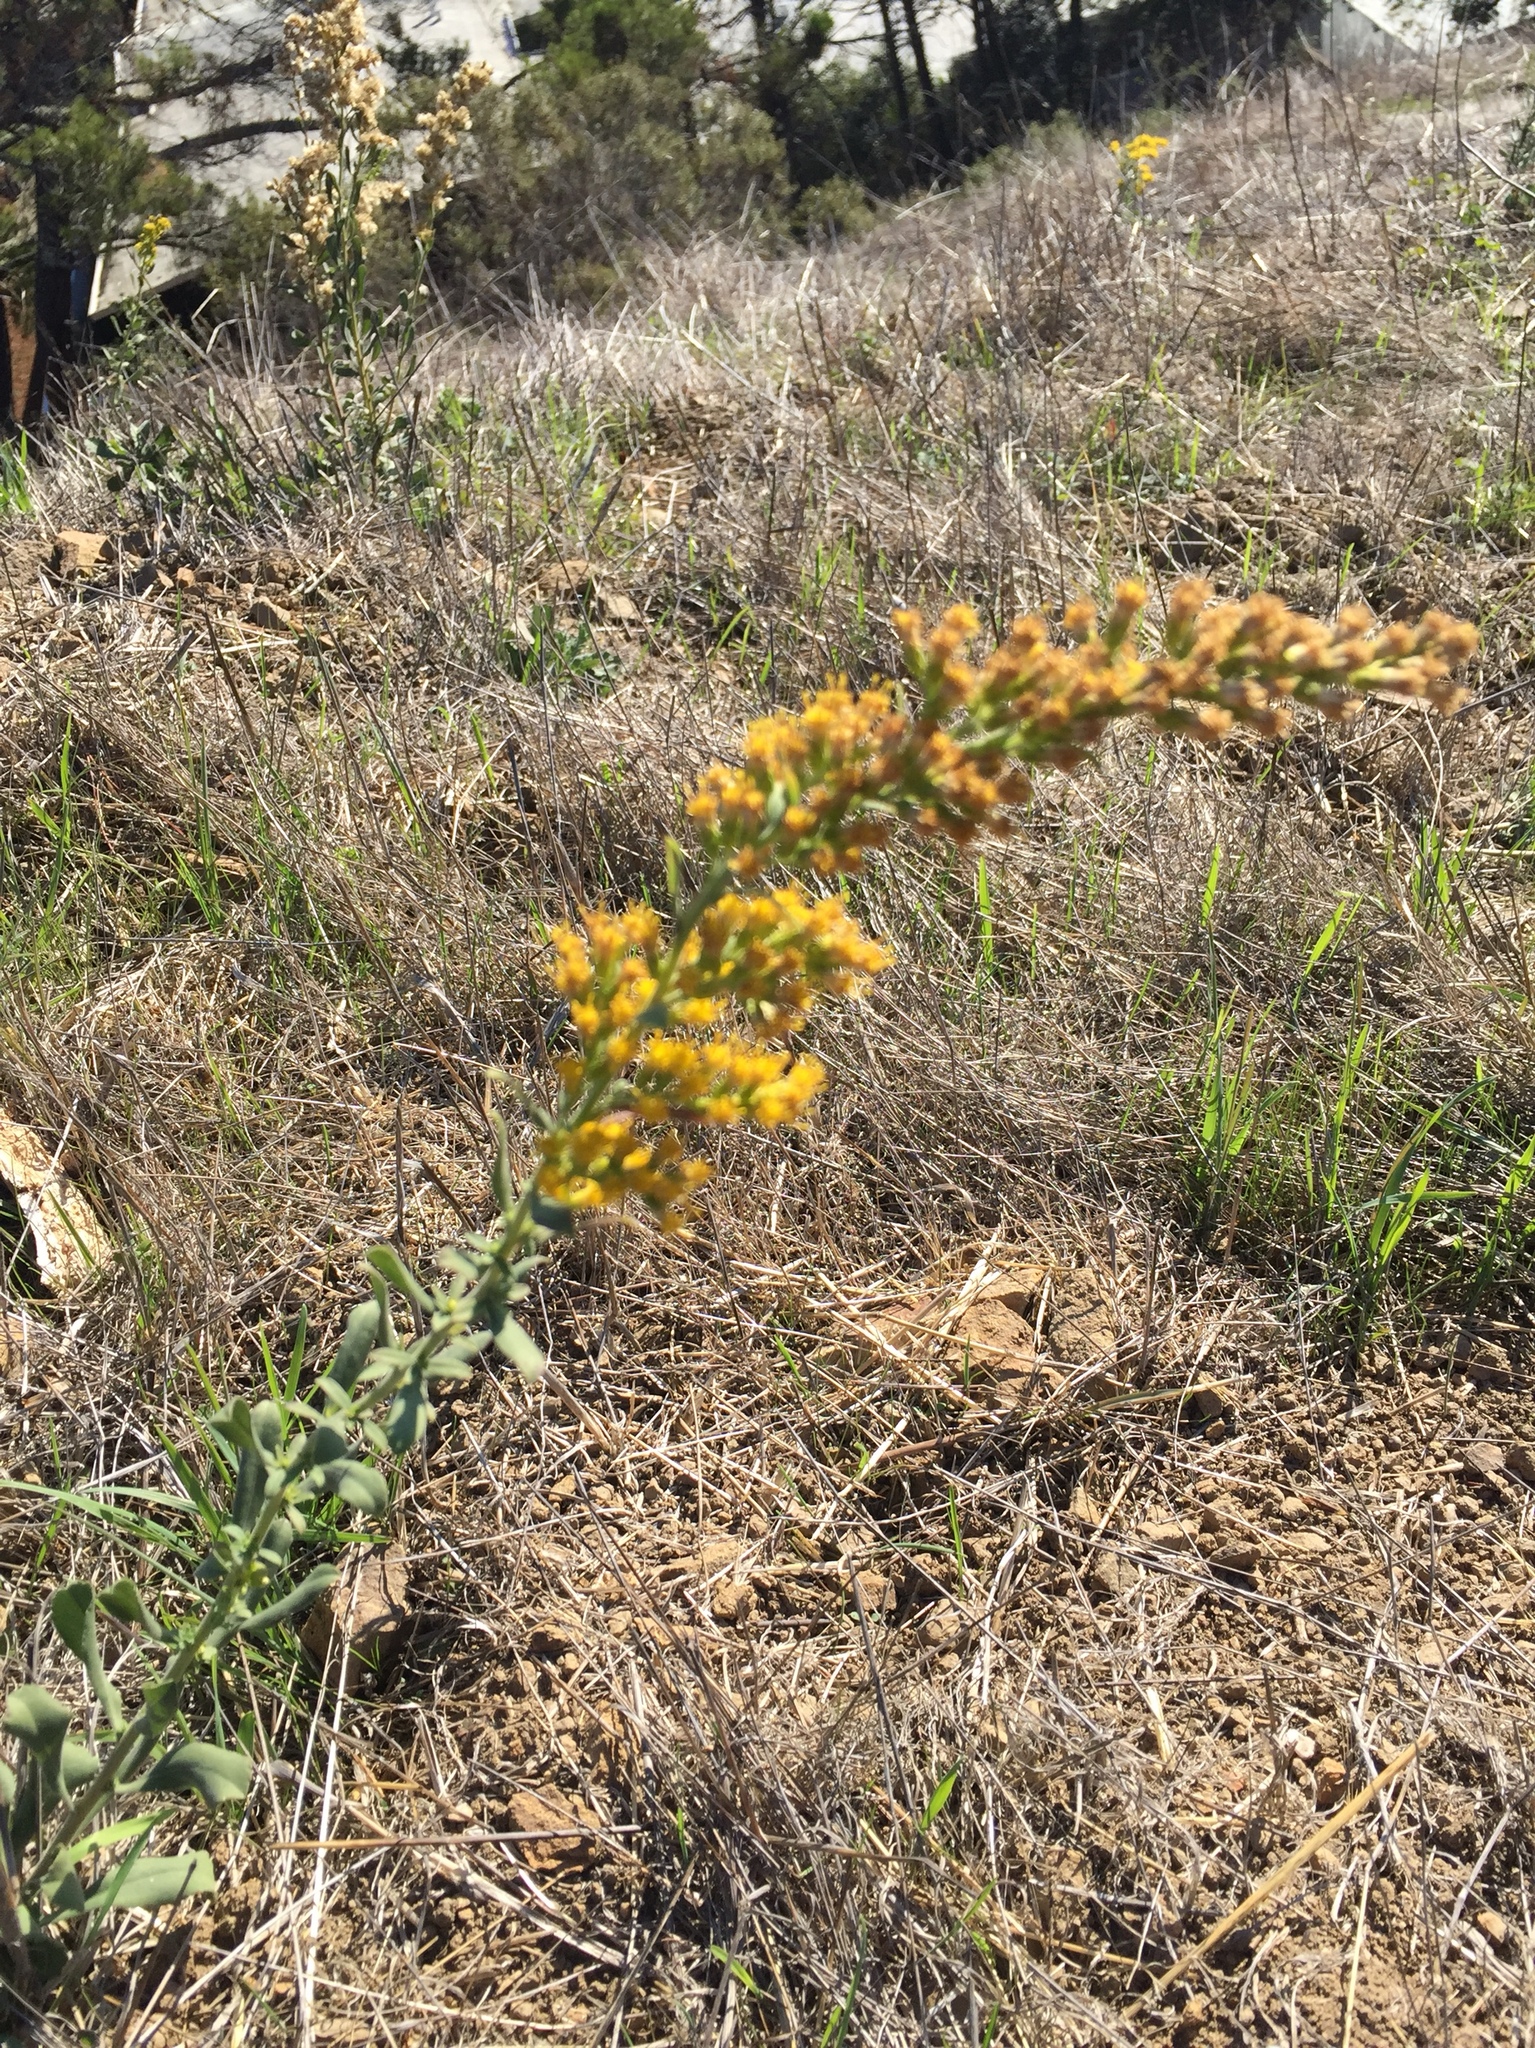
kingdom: Plantae
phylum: Tracheophyta
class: Magnoliopsida
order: Asterales
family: Asteraceae
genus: Solidago
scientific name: Solidago velutina
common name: Three-nerve goldenrod
